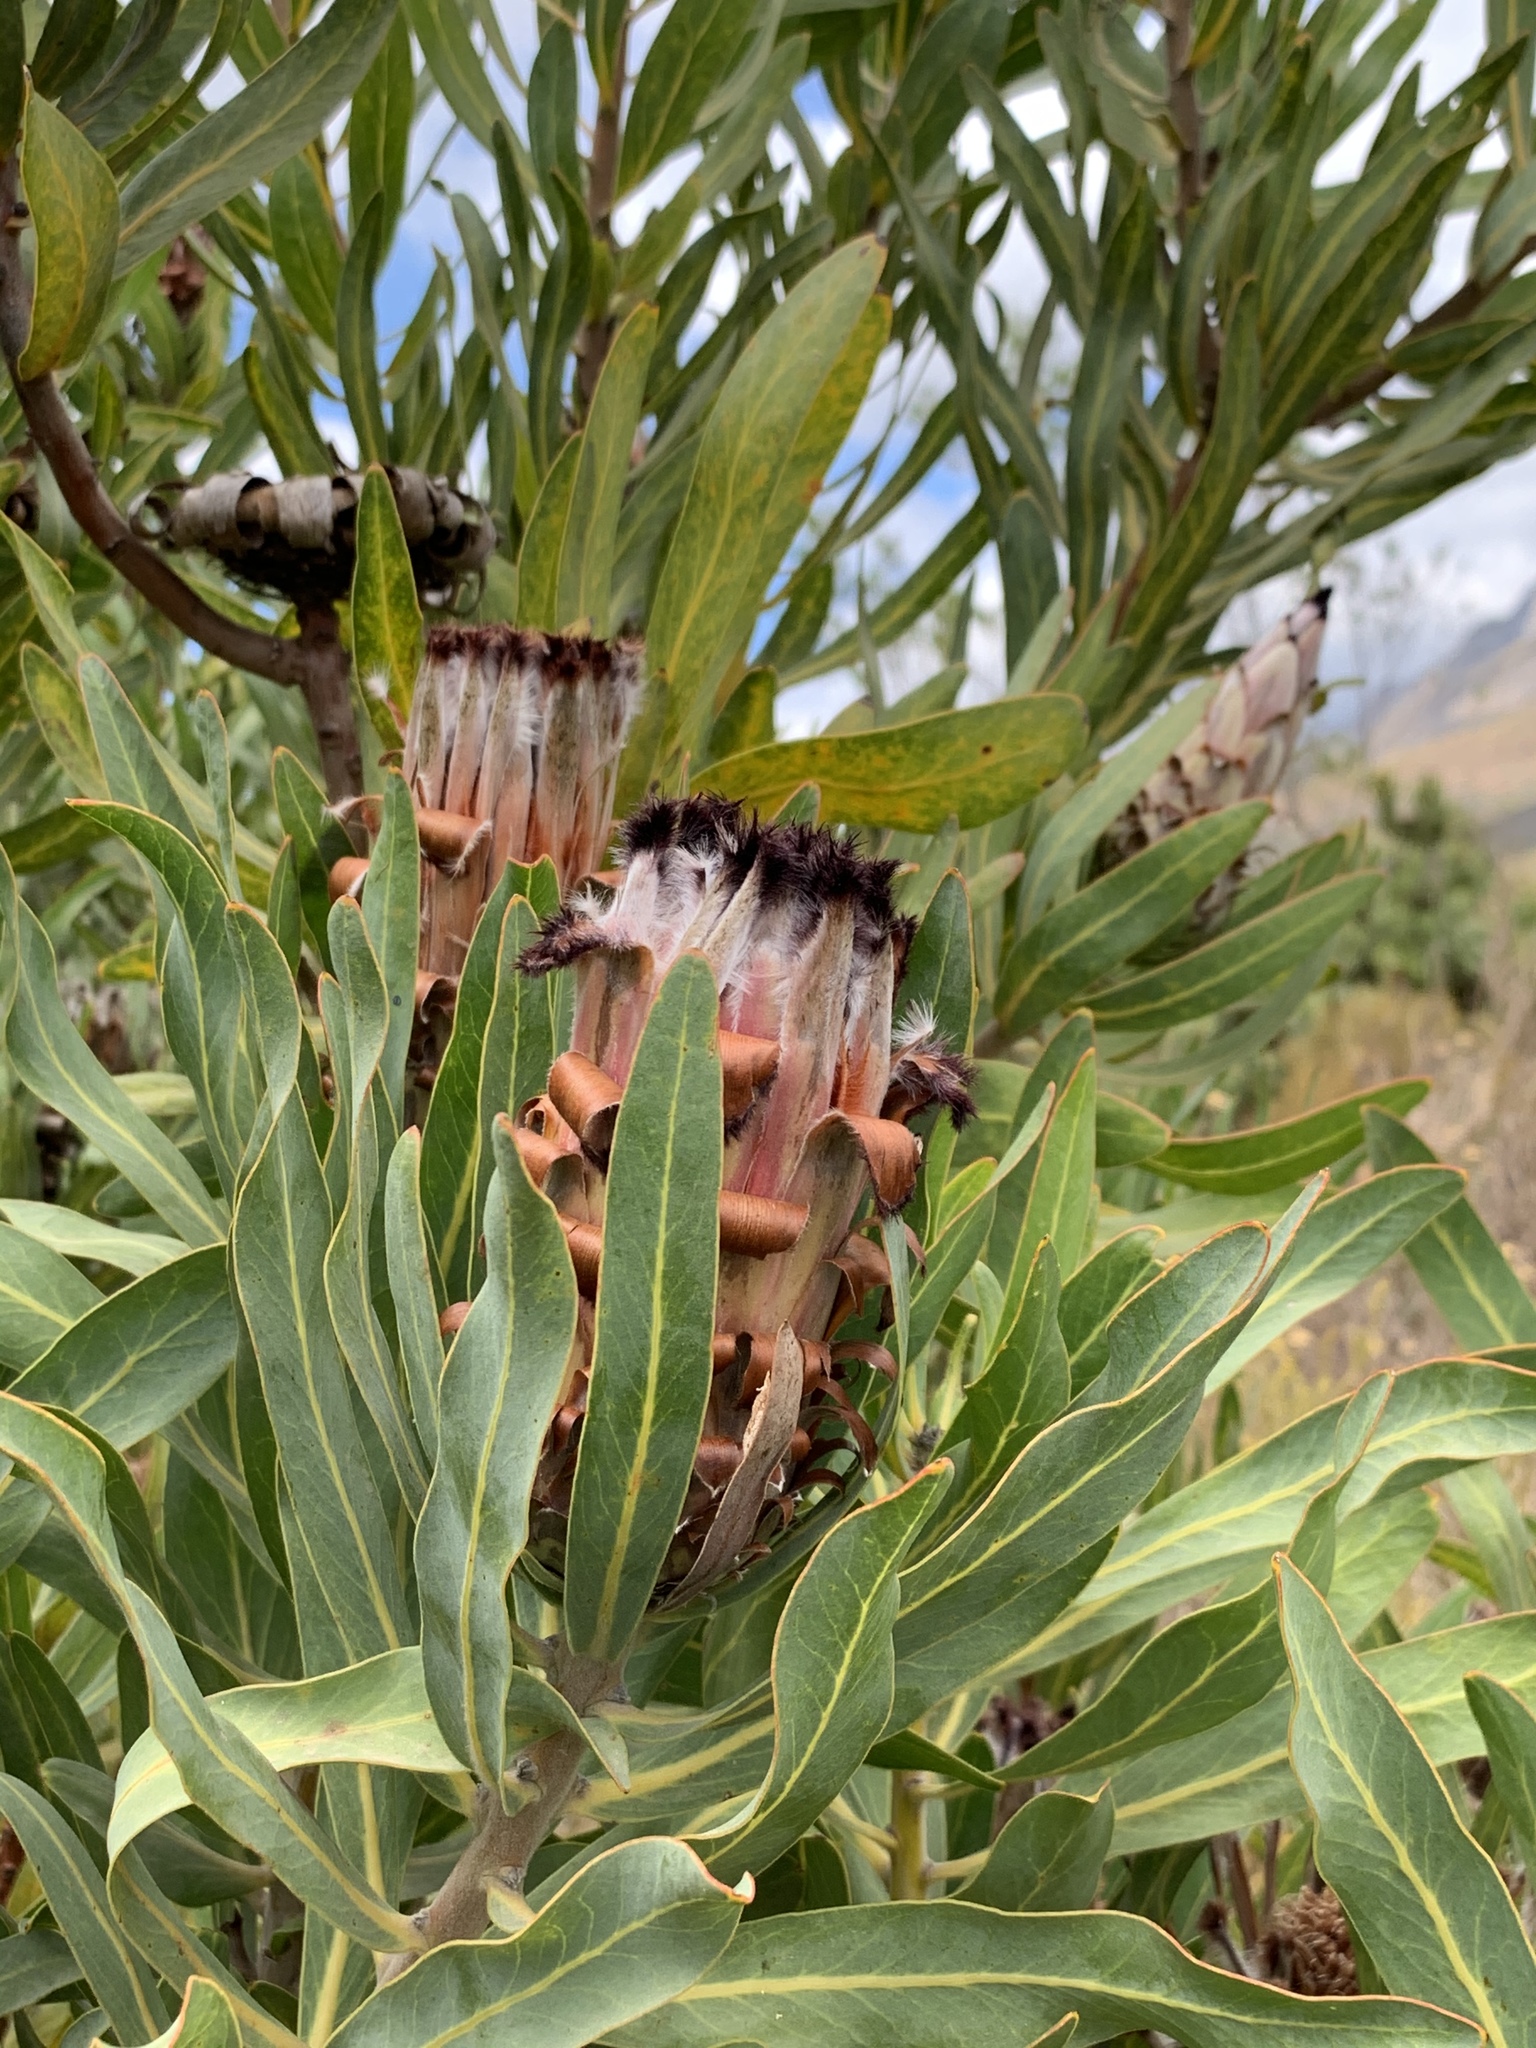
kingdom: Plantae
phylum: Tracheophyta
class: Magnoliopsida
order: Proteales
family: Proteaceae
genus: Protea
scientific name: Protea neriifolia
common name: Blue sugarbush
